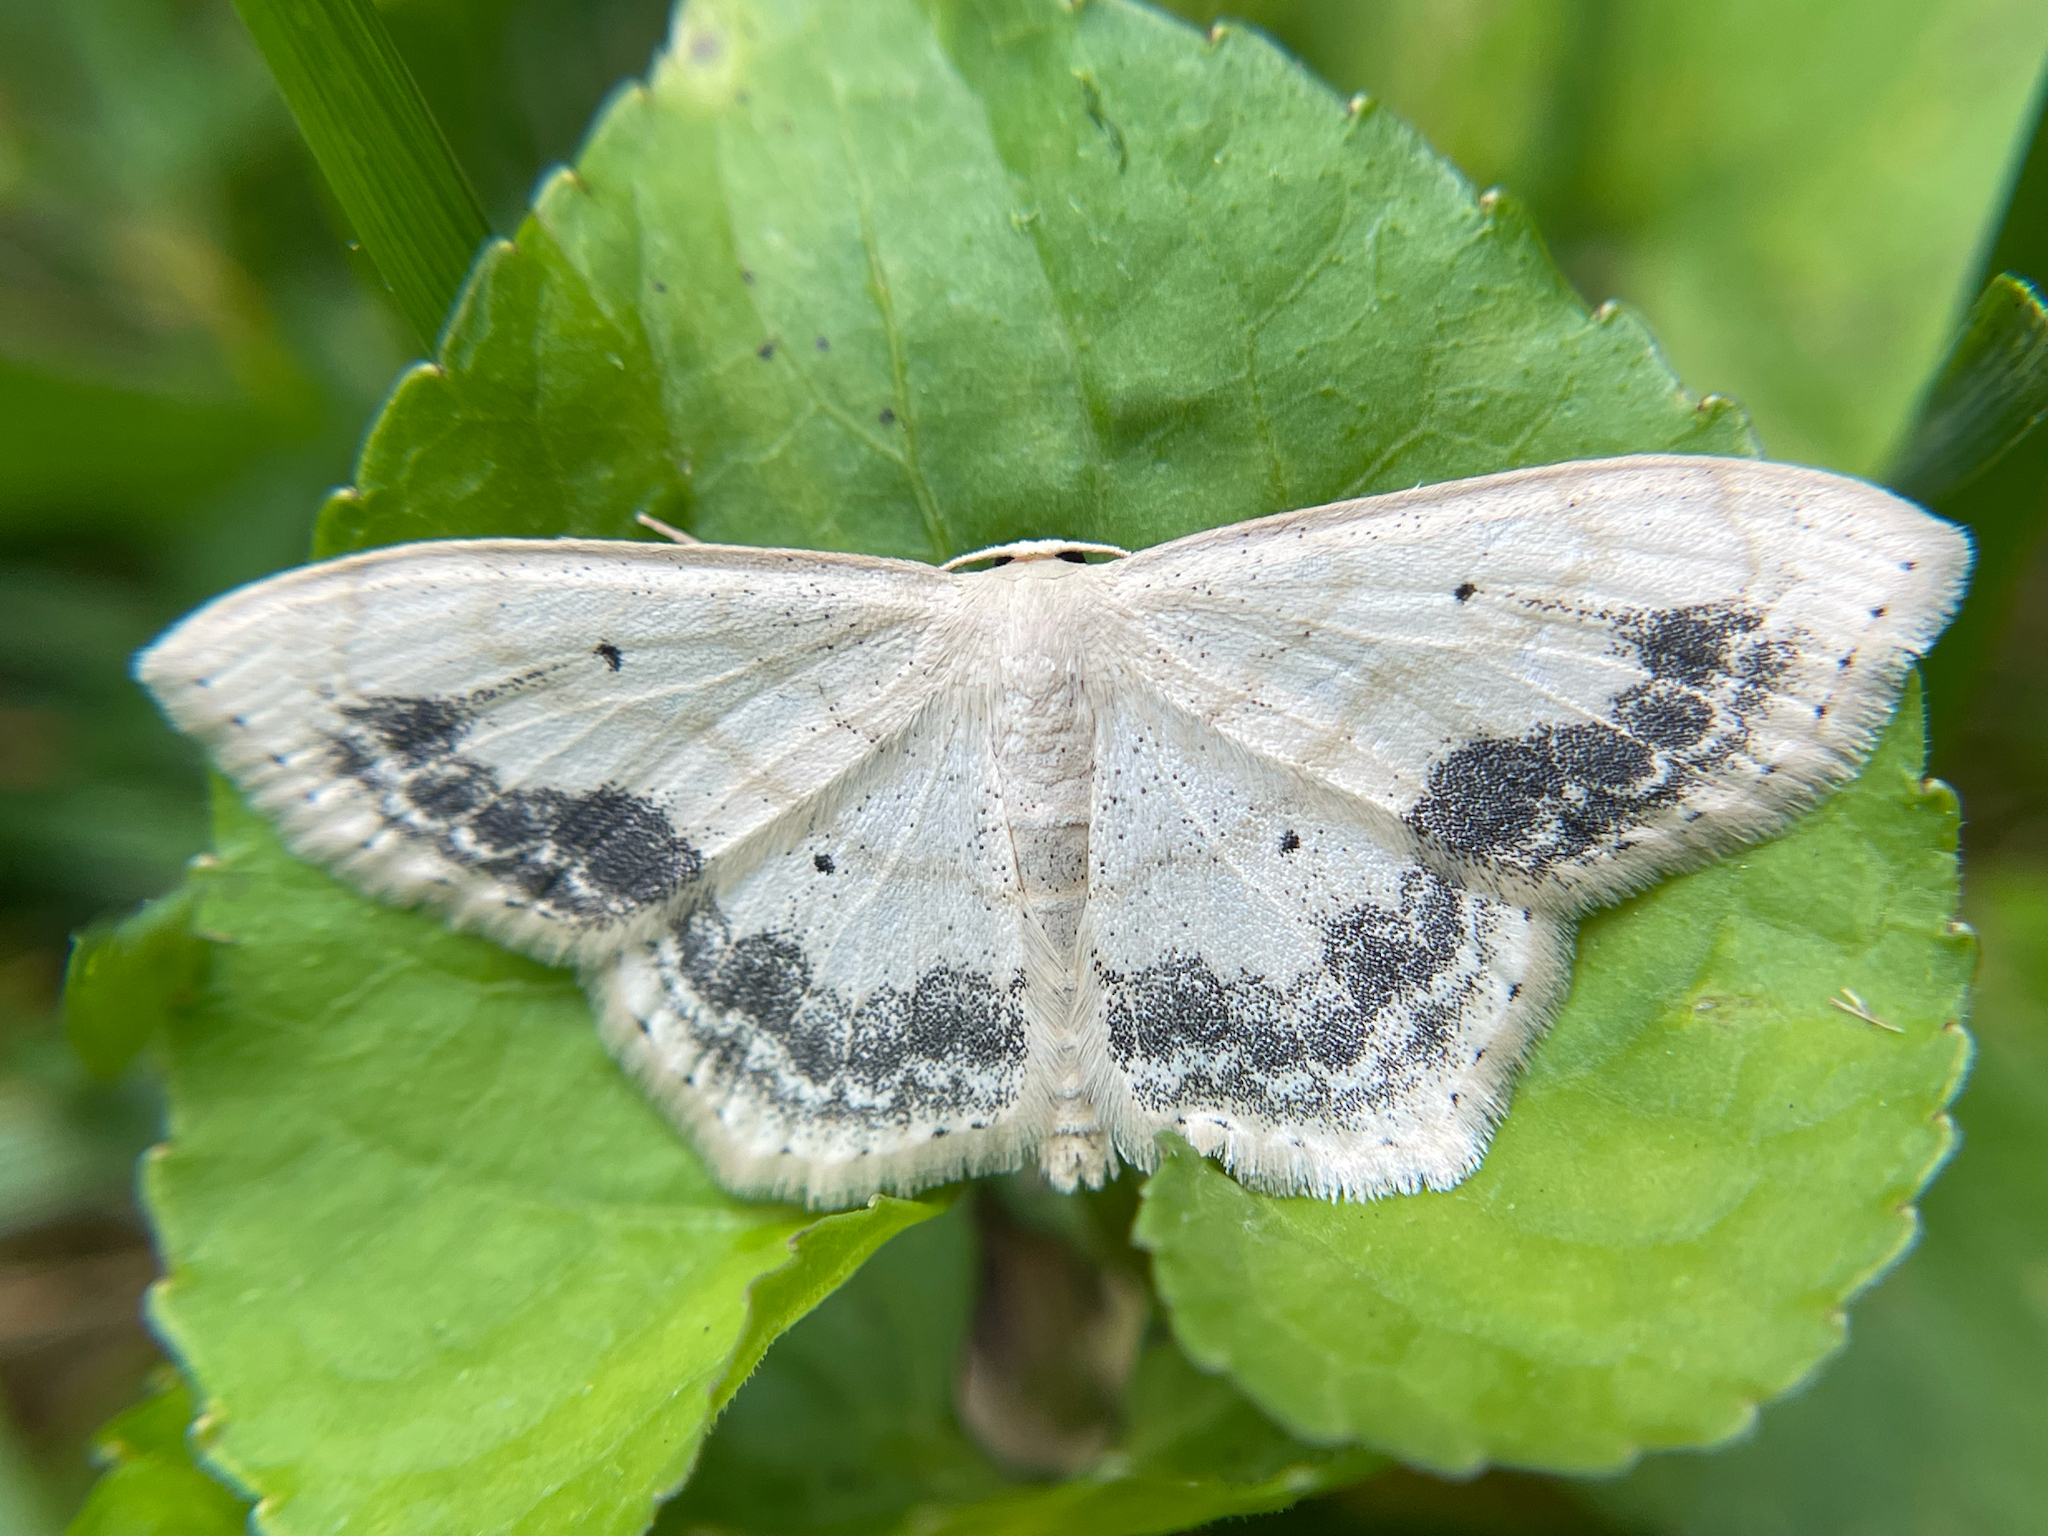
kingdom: Animalia
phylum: Arthropoda
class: Insecta
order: Lepidoptera
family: Geometridae
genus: Scopula
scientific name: Scopula limboundata
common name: Large lace border
